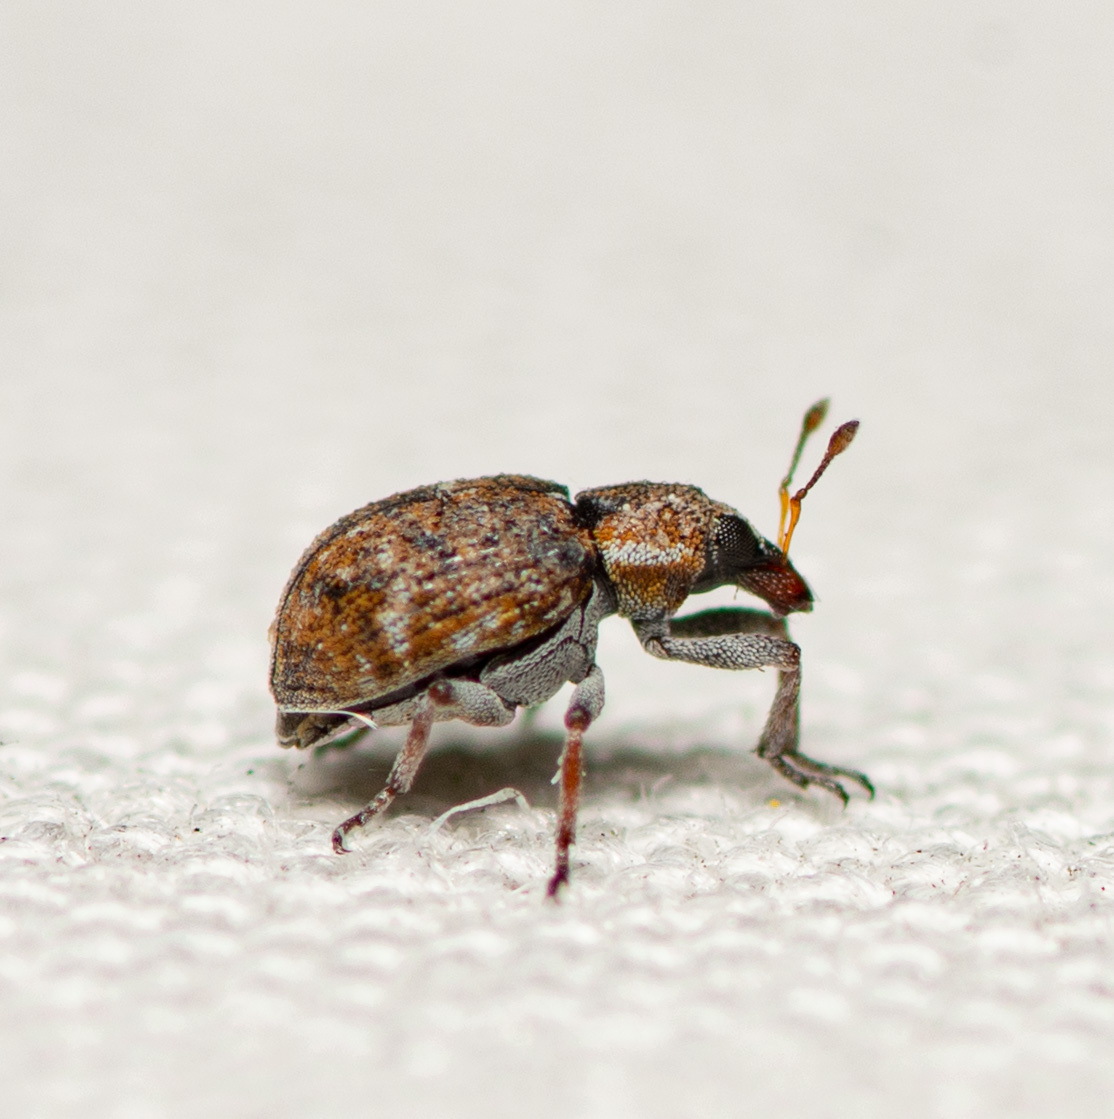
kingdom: Animalia
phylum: Arthropoda
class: Insecta
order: Coleoptera
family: Brachyceridae
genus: Stenopelmus
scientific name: Stenopelmus rufinasus
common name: Azolla weevil
